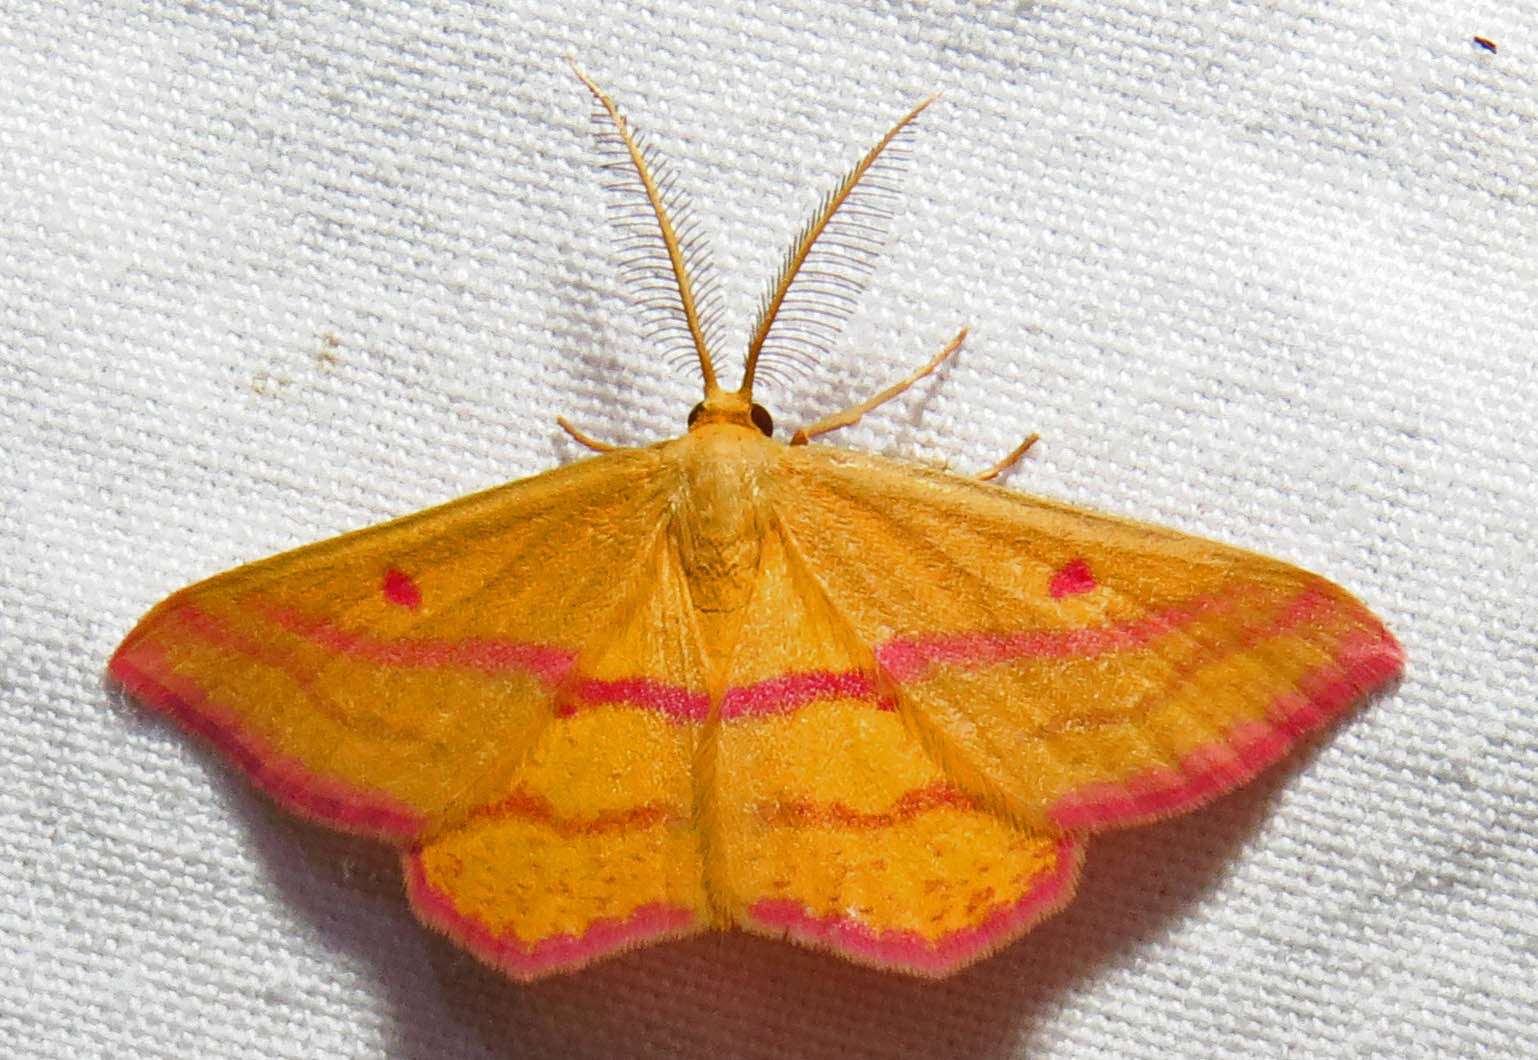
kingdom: Animalia
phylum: Arthropoda
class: Insecta
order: Lepidoptera
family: Geometridae
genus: Haematopis
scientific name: Haematopis grataria
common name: Chickweed geometer
